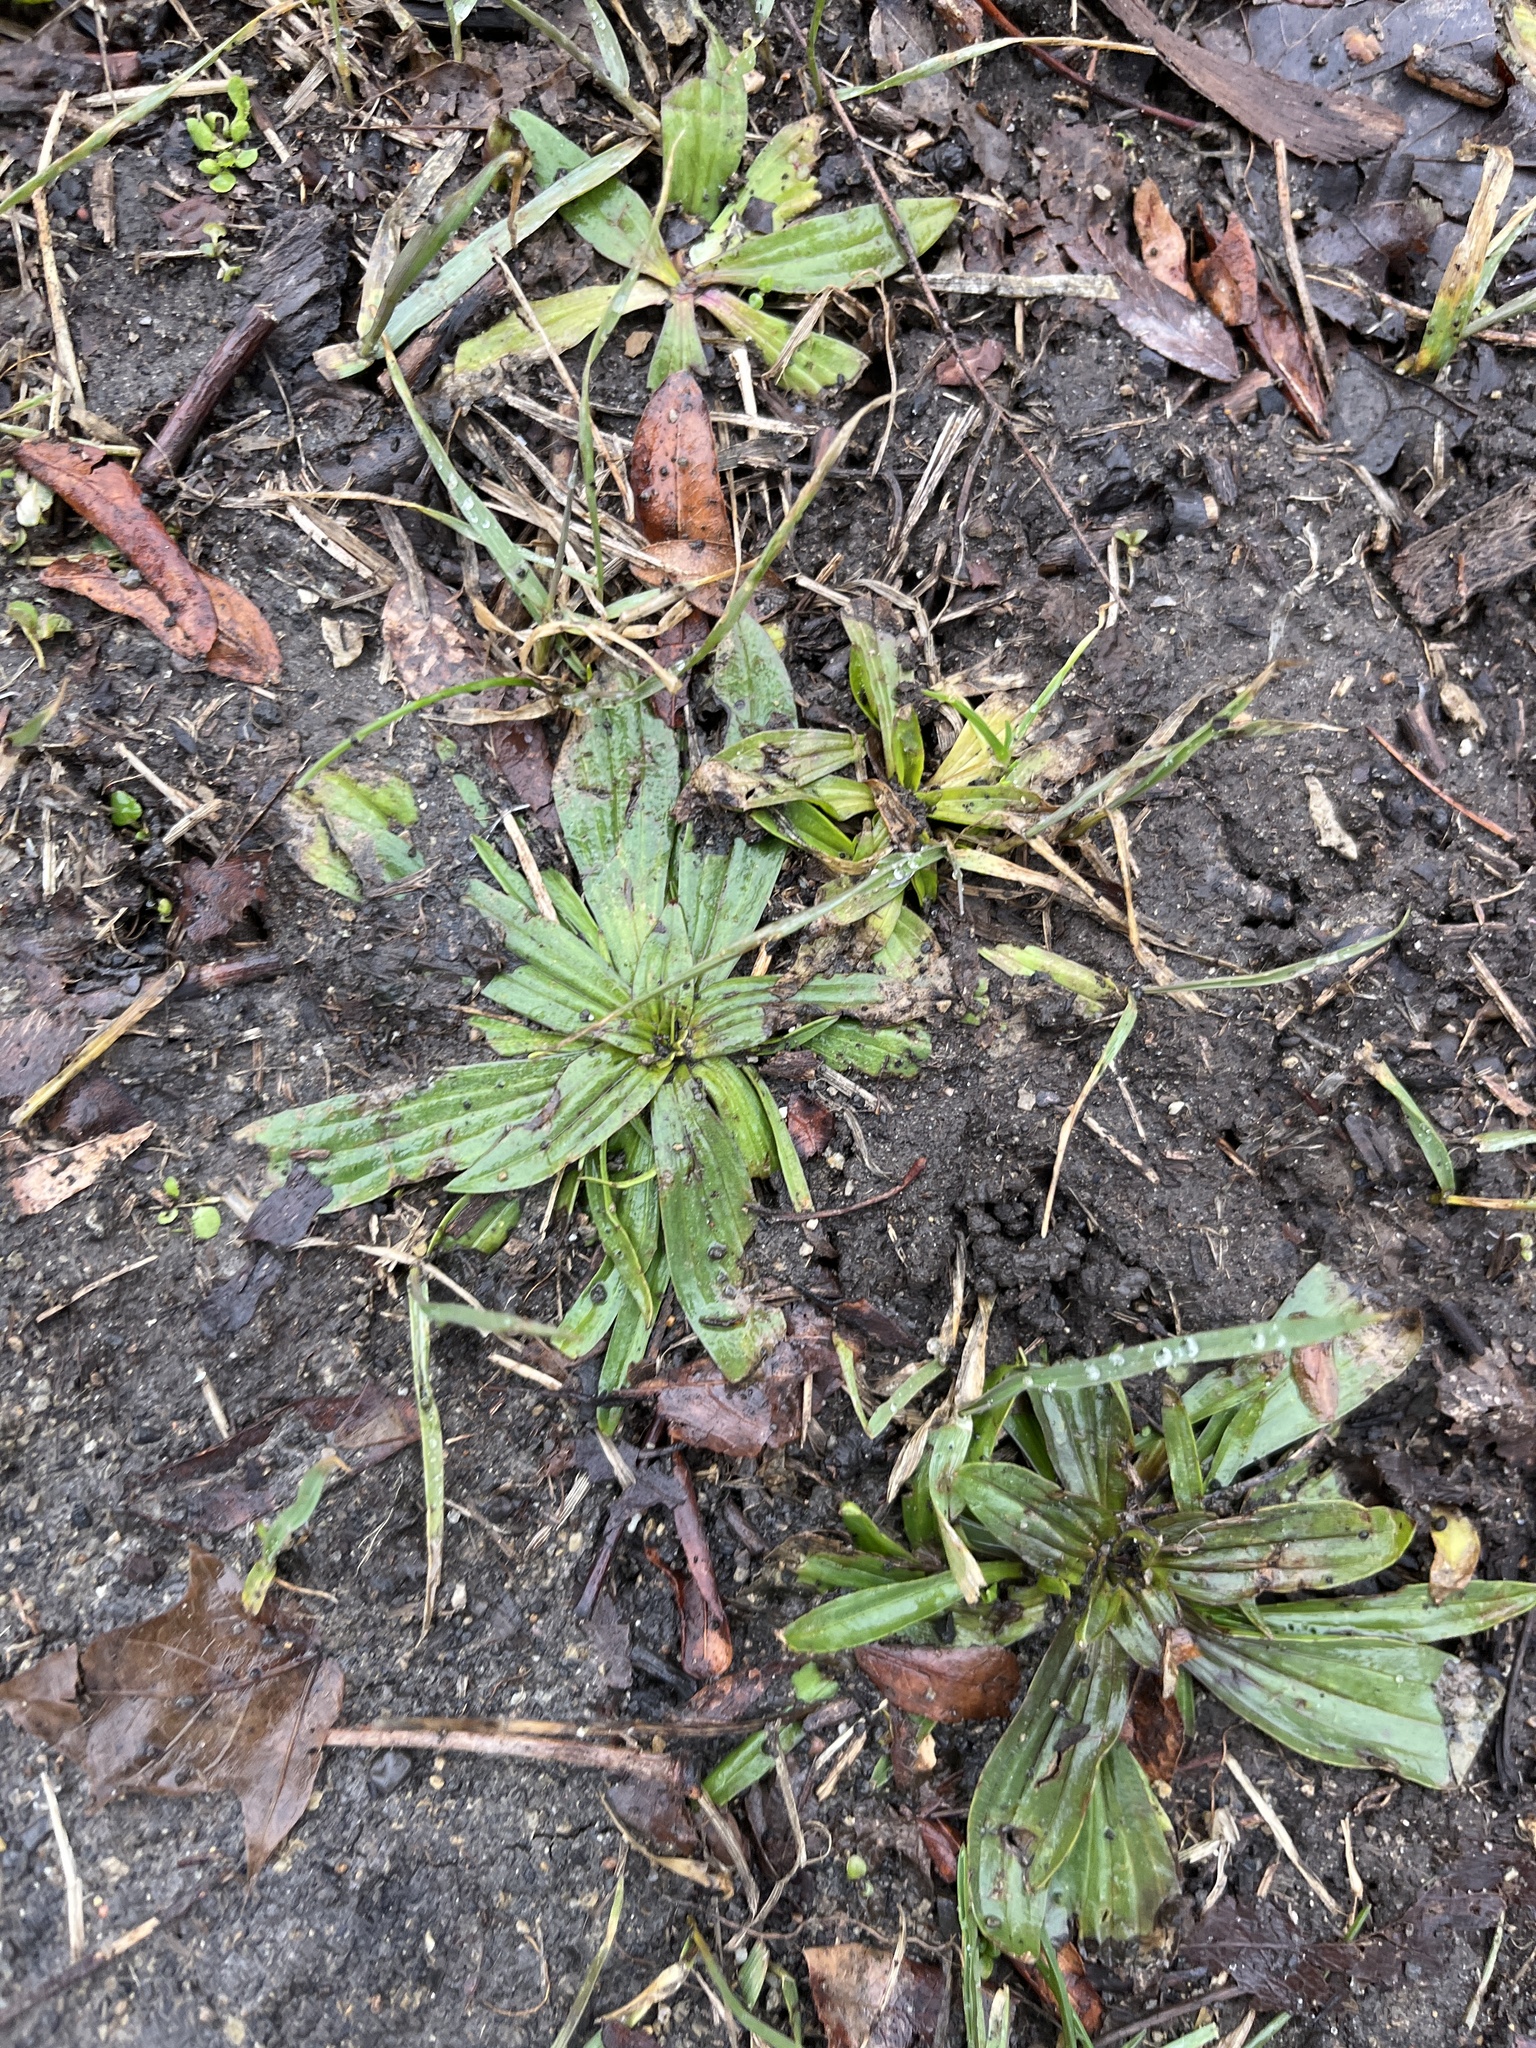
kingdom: Plantae
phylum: Tracheophyta
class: Magnoliopsida
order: Lamiales
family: Plantaginaceae
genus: Plantago
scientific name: Plantago lanceolata
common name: Ribwort plantain
